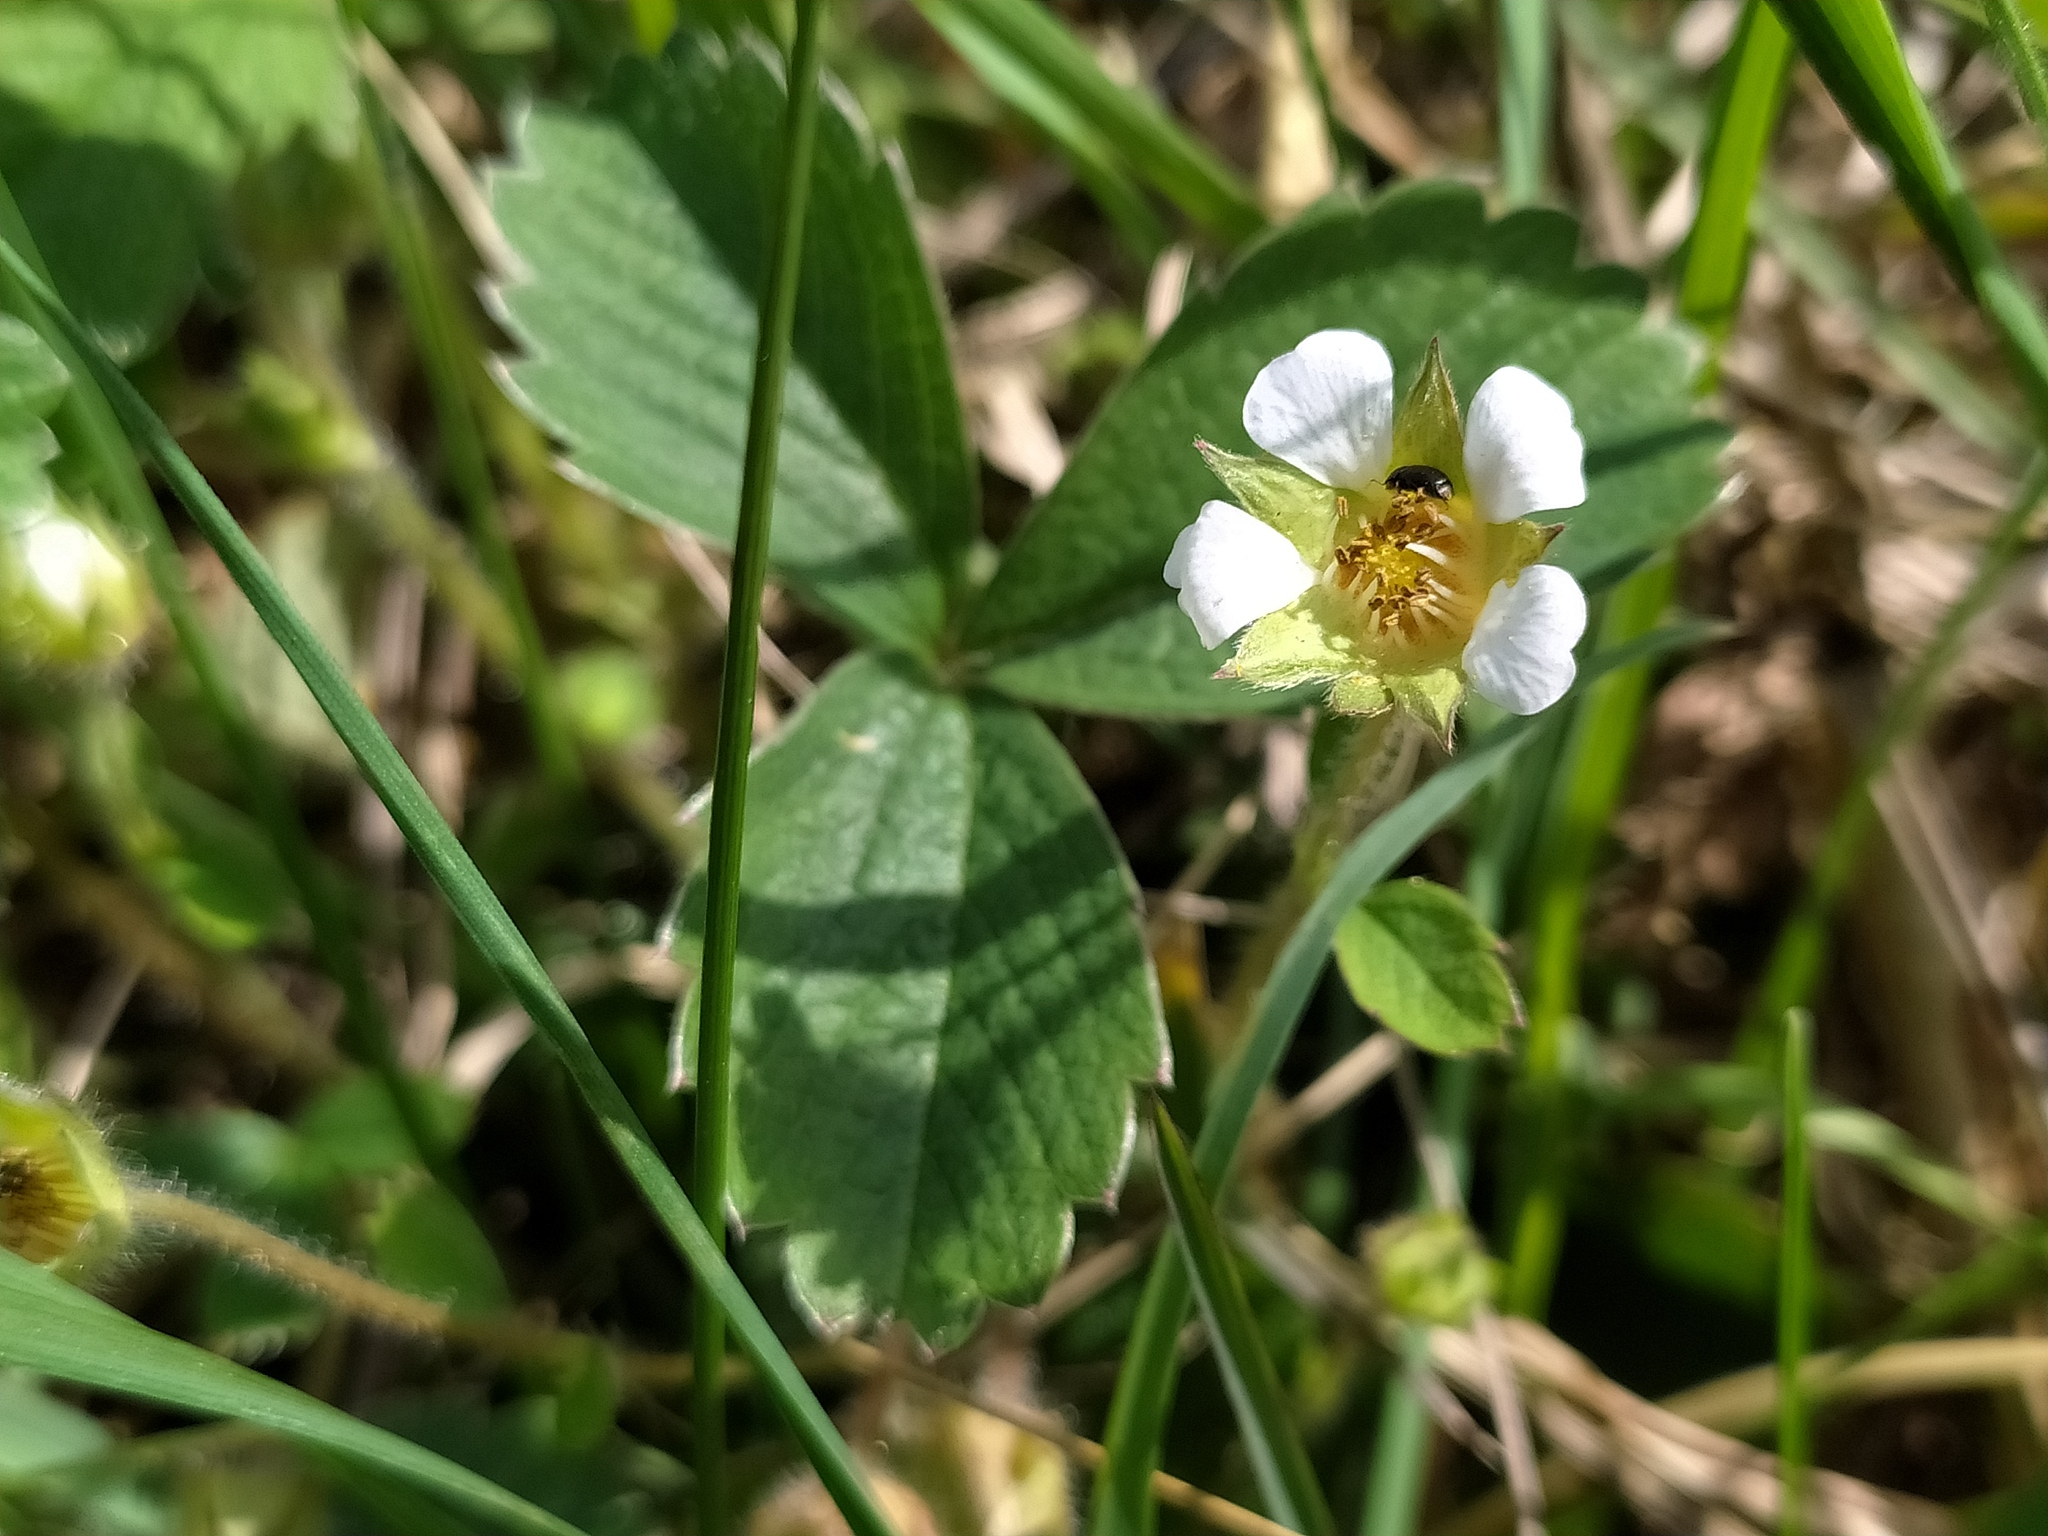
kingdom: Plantae
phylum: Tracheophyta
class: Magnoliopsida
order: Rosales
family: Rosaceae
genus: Potentilla
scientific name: Potentilla sterilis
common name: Barren strawberry
